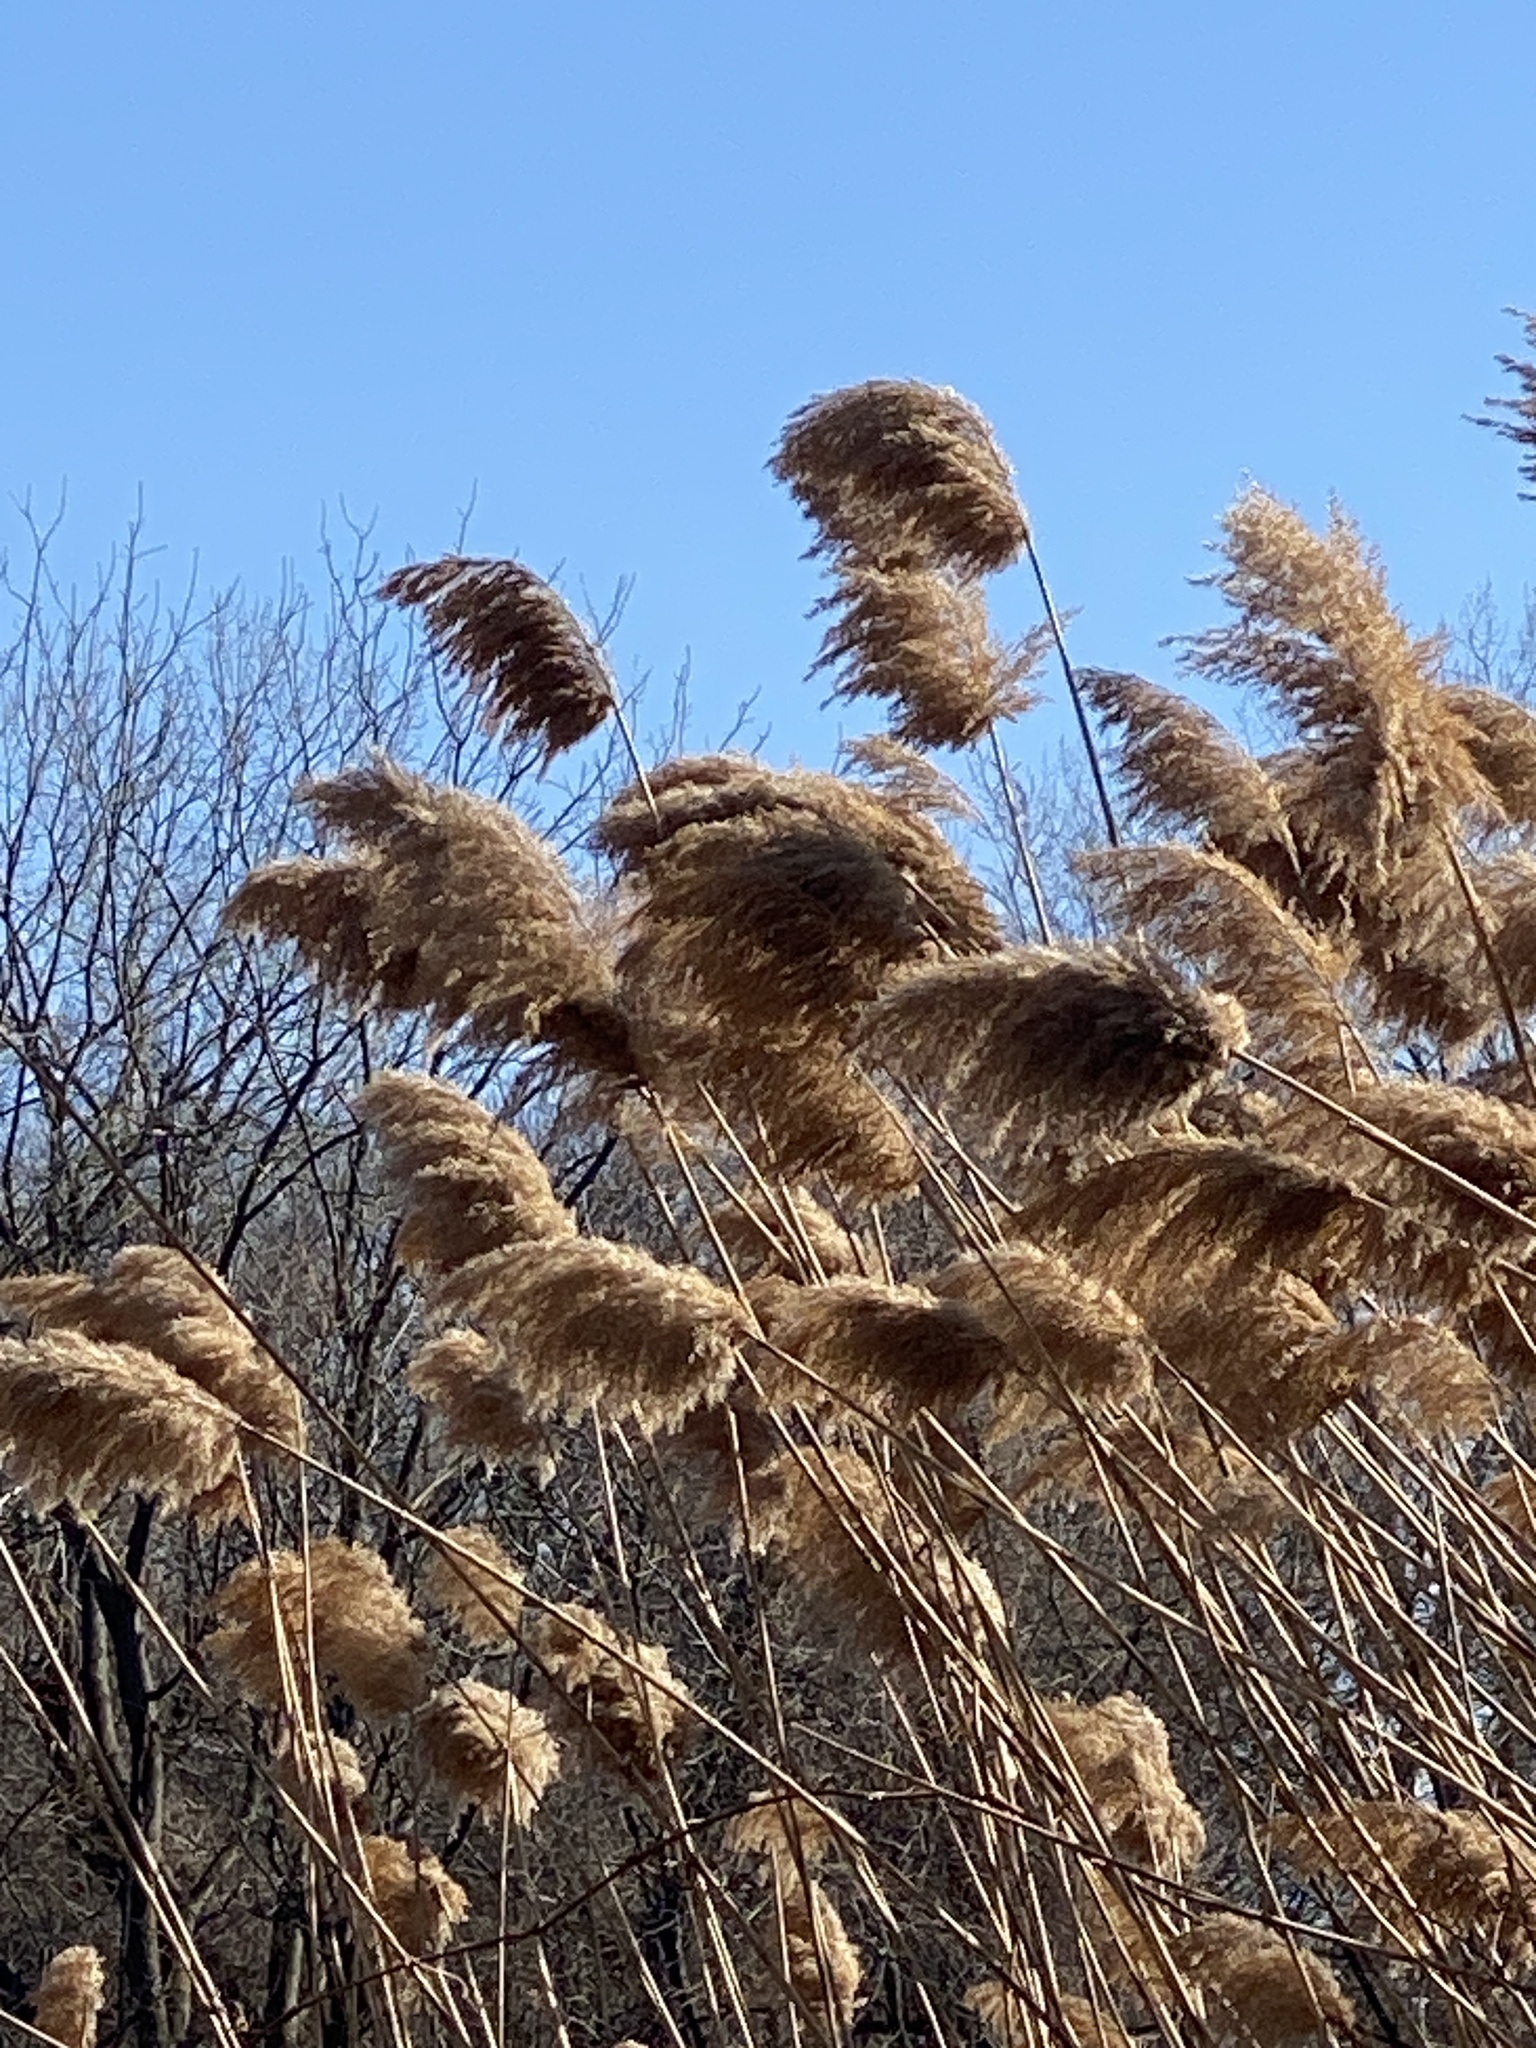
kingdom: Plantae
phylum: Tracheophyta
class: Liliopsida
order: Poales
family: Poaceae
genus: Phragmites
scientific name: Phragmites australis
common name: Common reed
